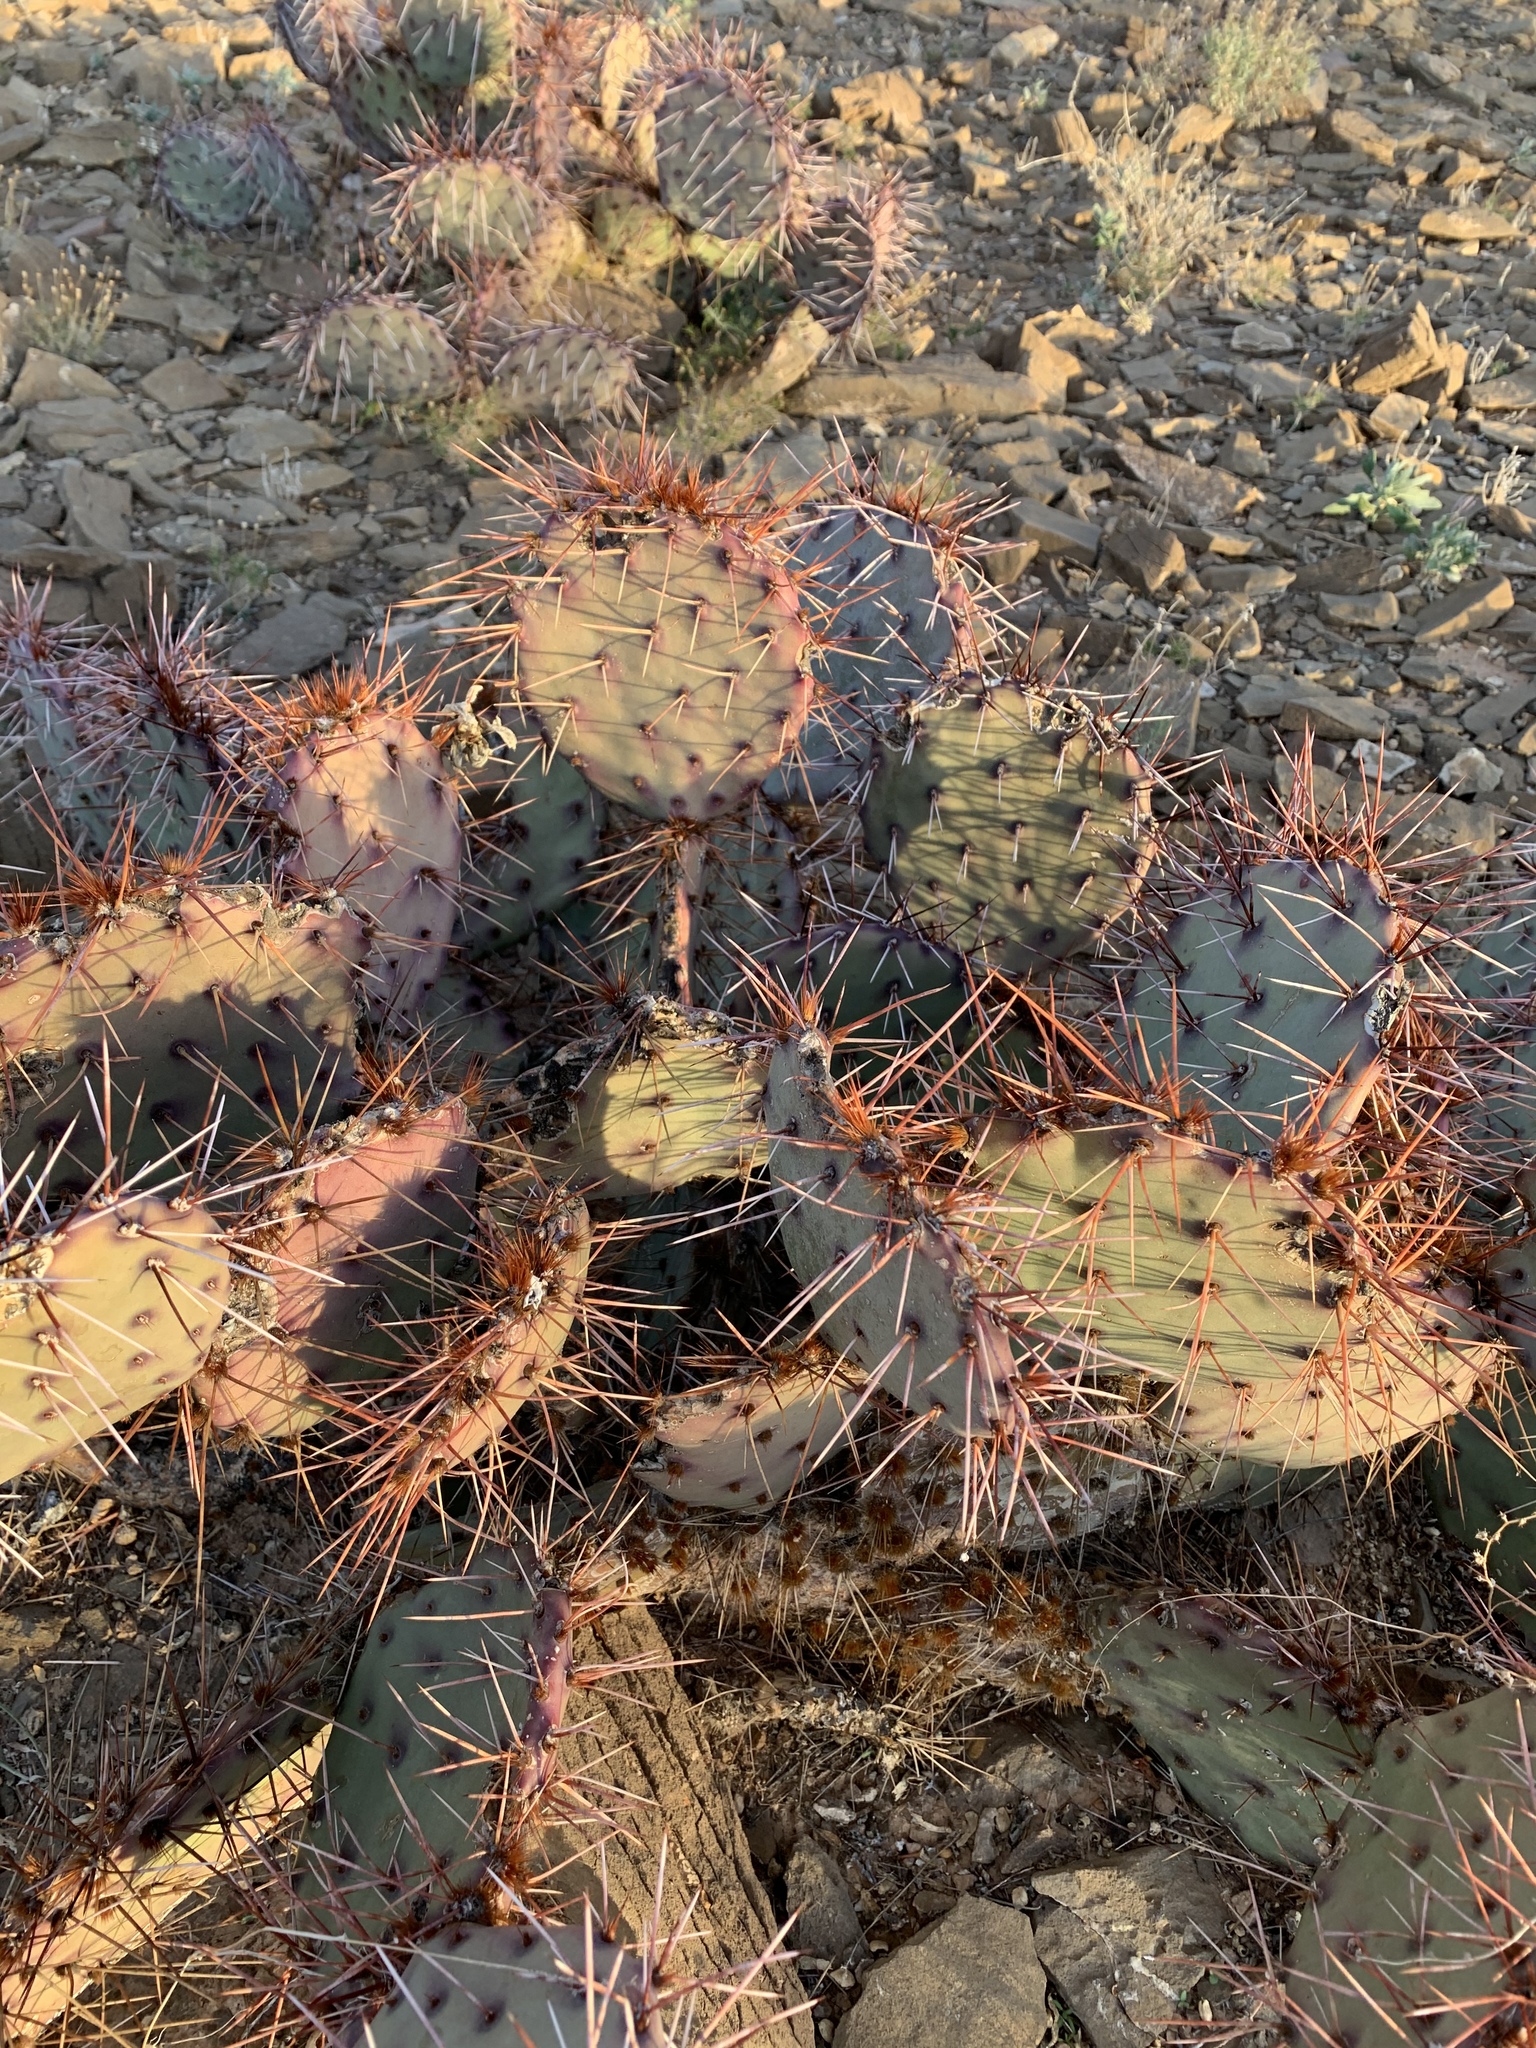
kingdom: Plantae
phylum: Tracheophyta
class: Magnoliopsida
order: Caryophyllales
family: Cactaceae
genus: Opuntia
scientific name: Opuntia macrocentra
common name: Purple prickly-pear
